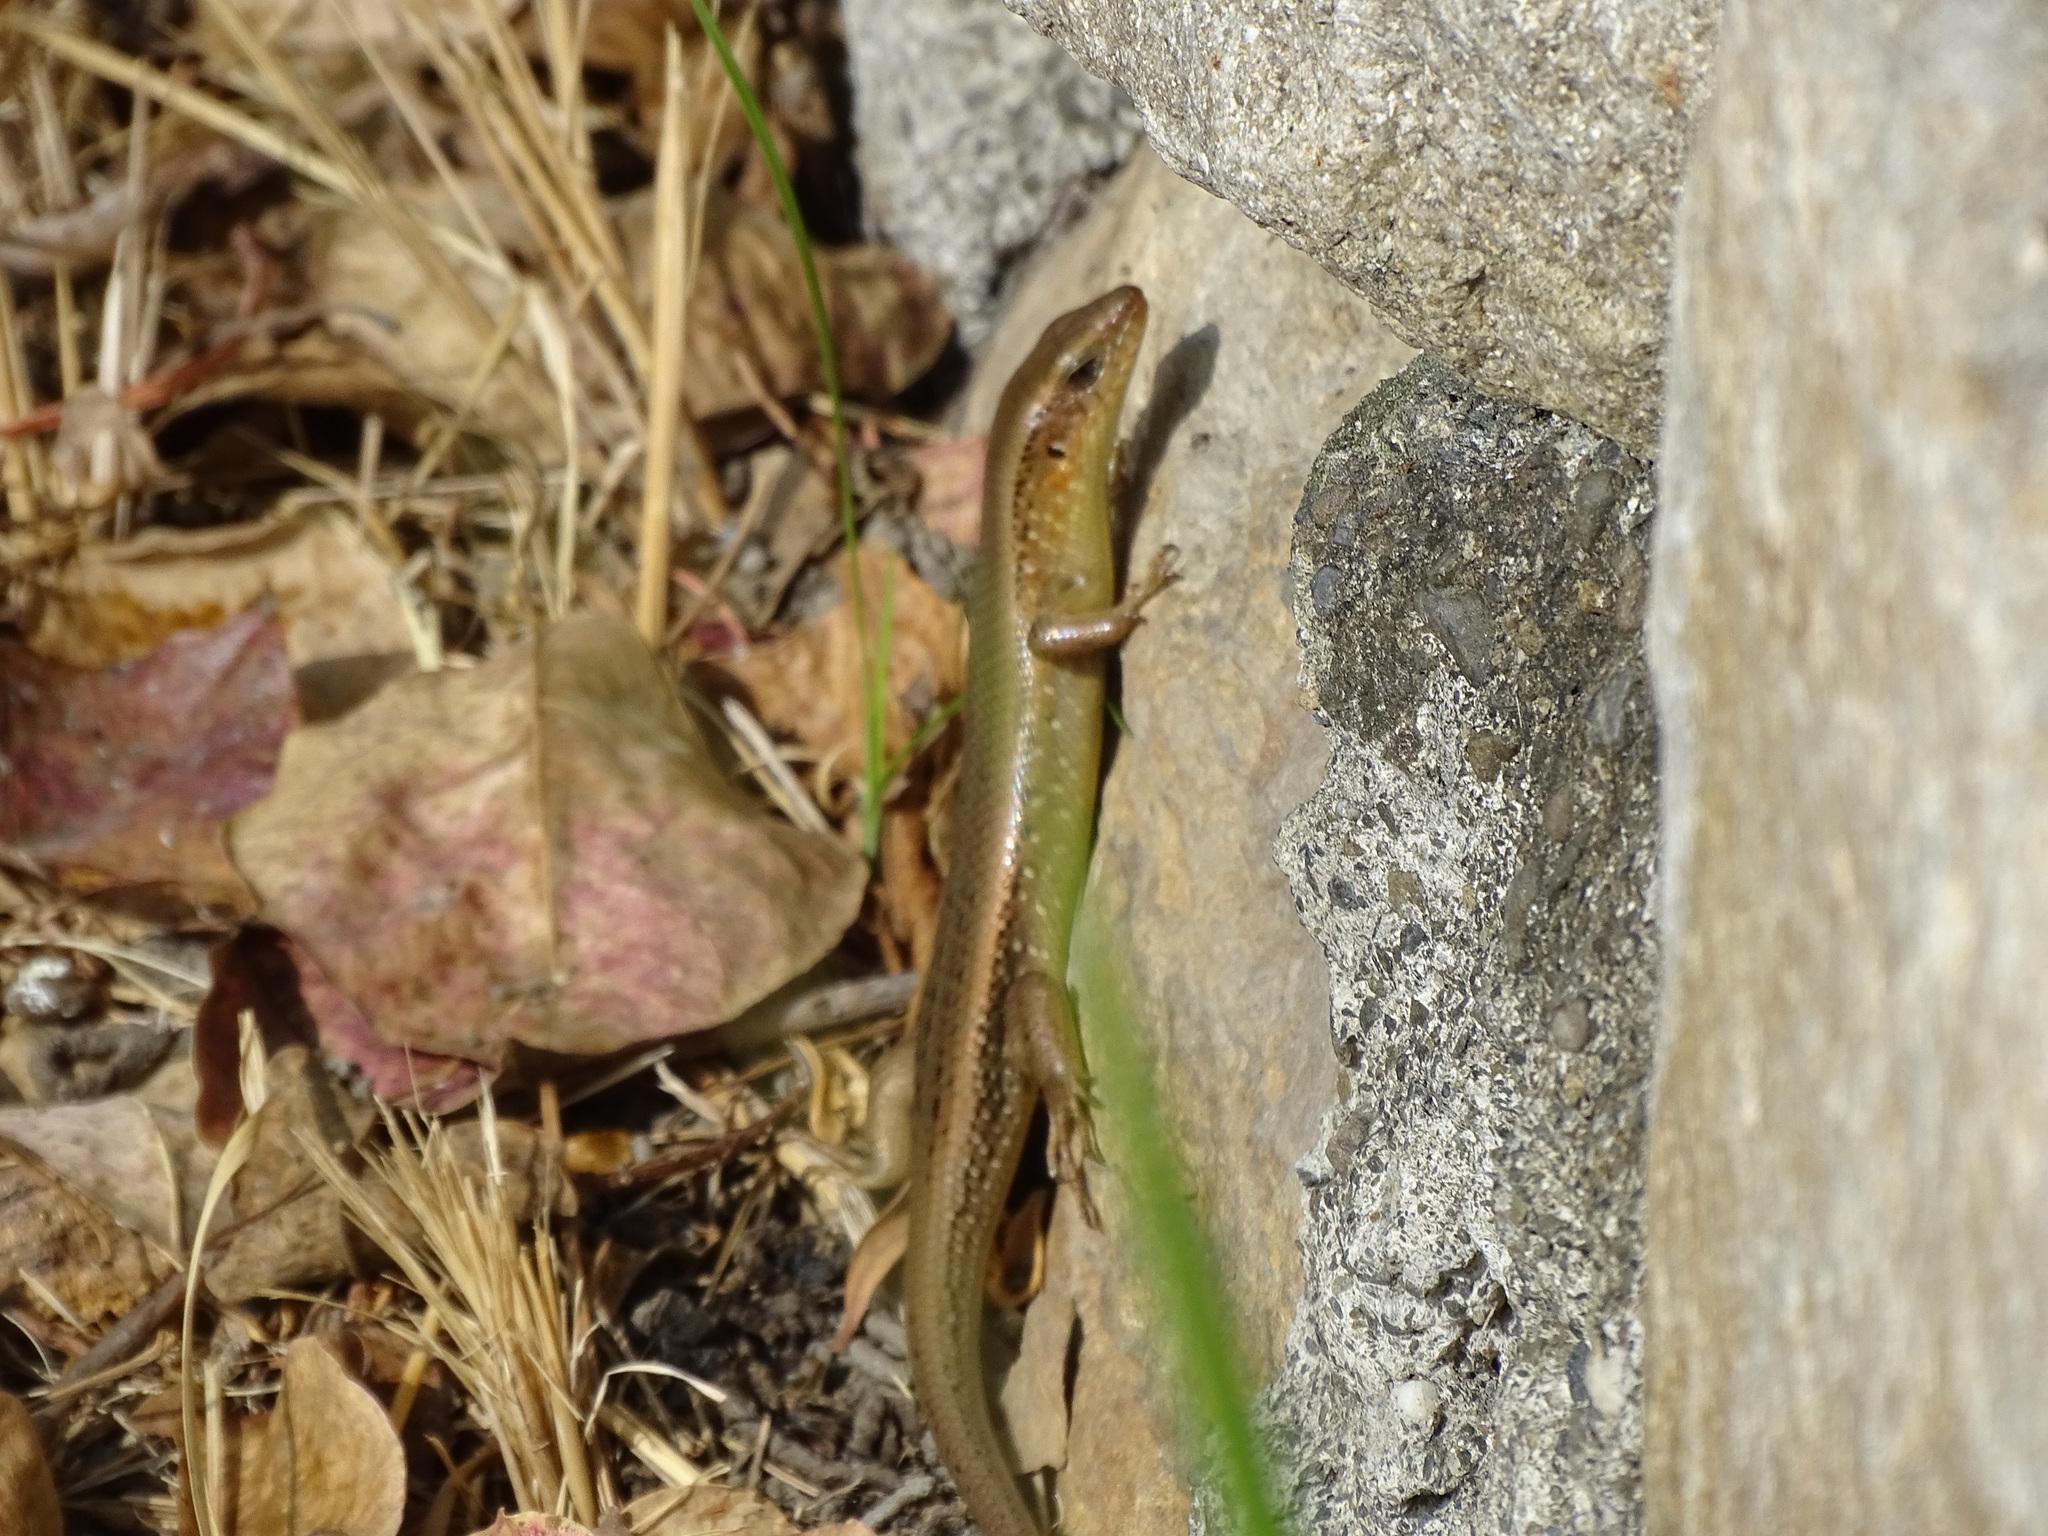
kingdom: Animalia
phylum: Chordata
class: Squamata
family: Scincidae
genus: Eutropis
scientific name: Eutropis multifasciata
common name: Common mabuya
